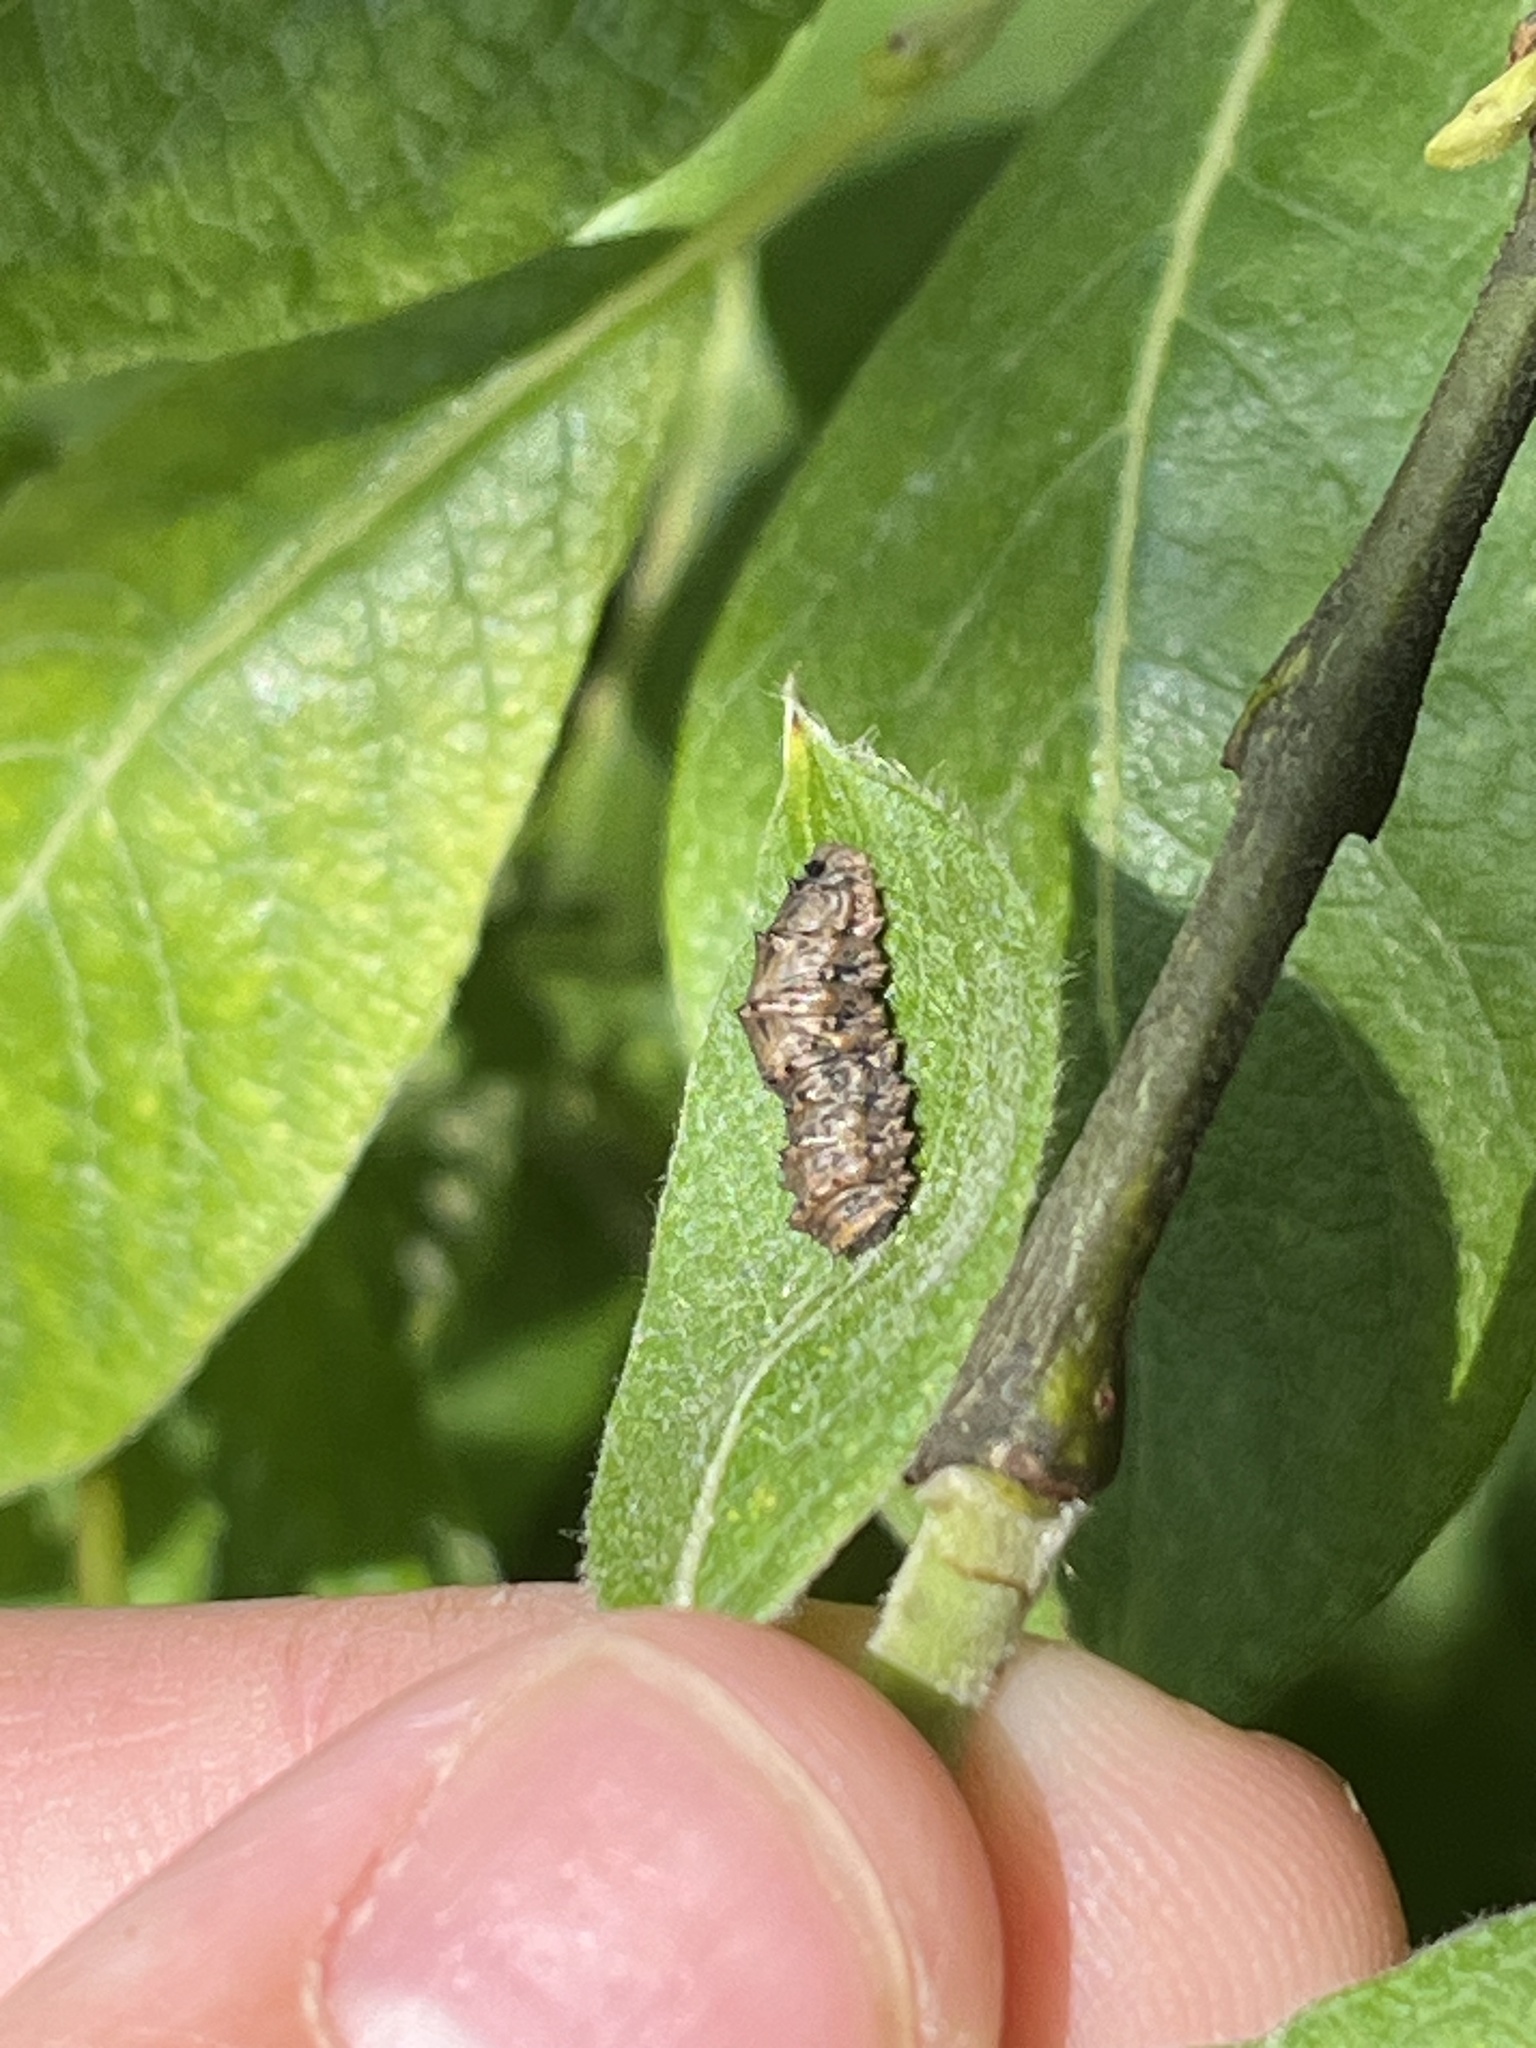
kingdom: Animalia
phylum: Arthropoda
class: Insecta
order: Diptera
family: Syrphidae
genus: Didea
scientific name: Didea
